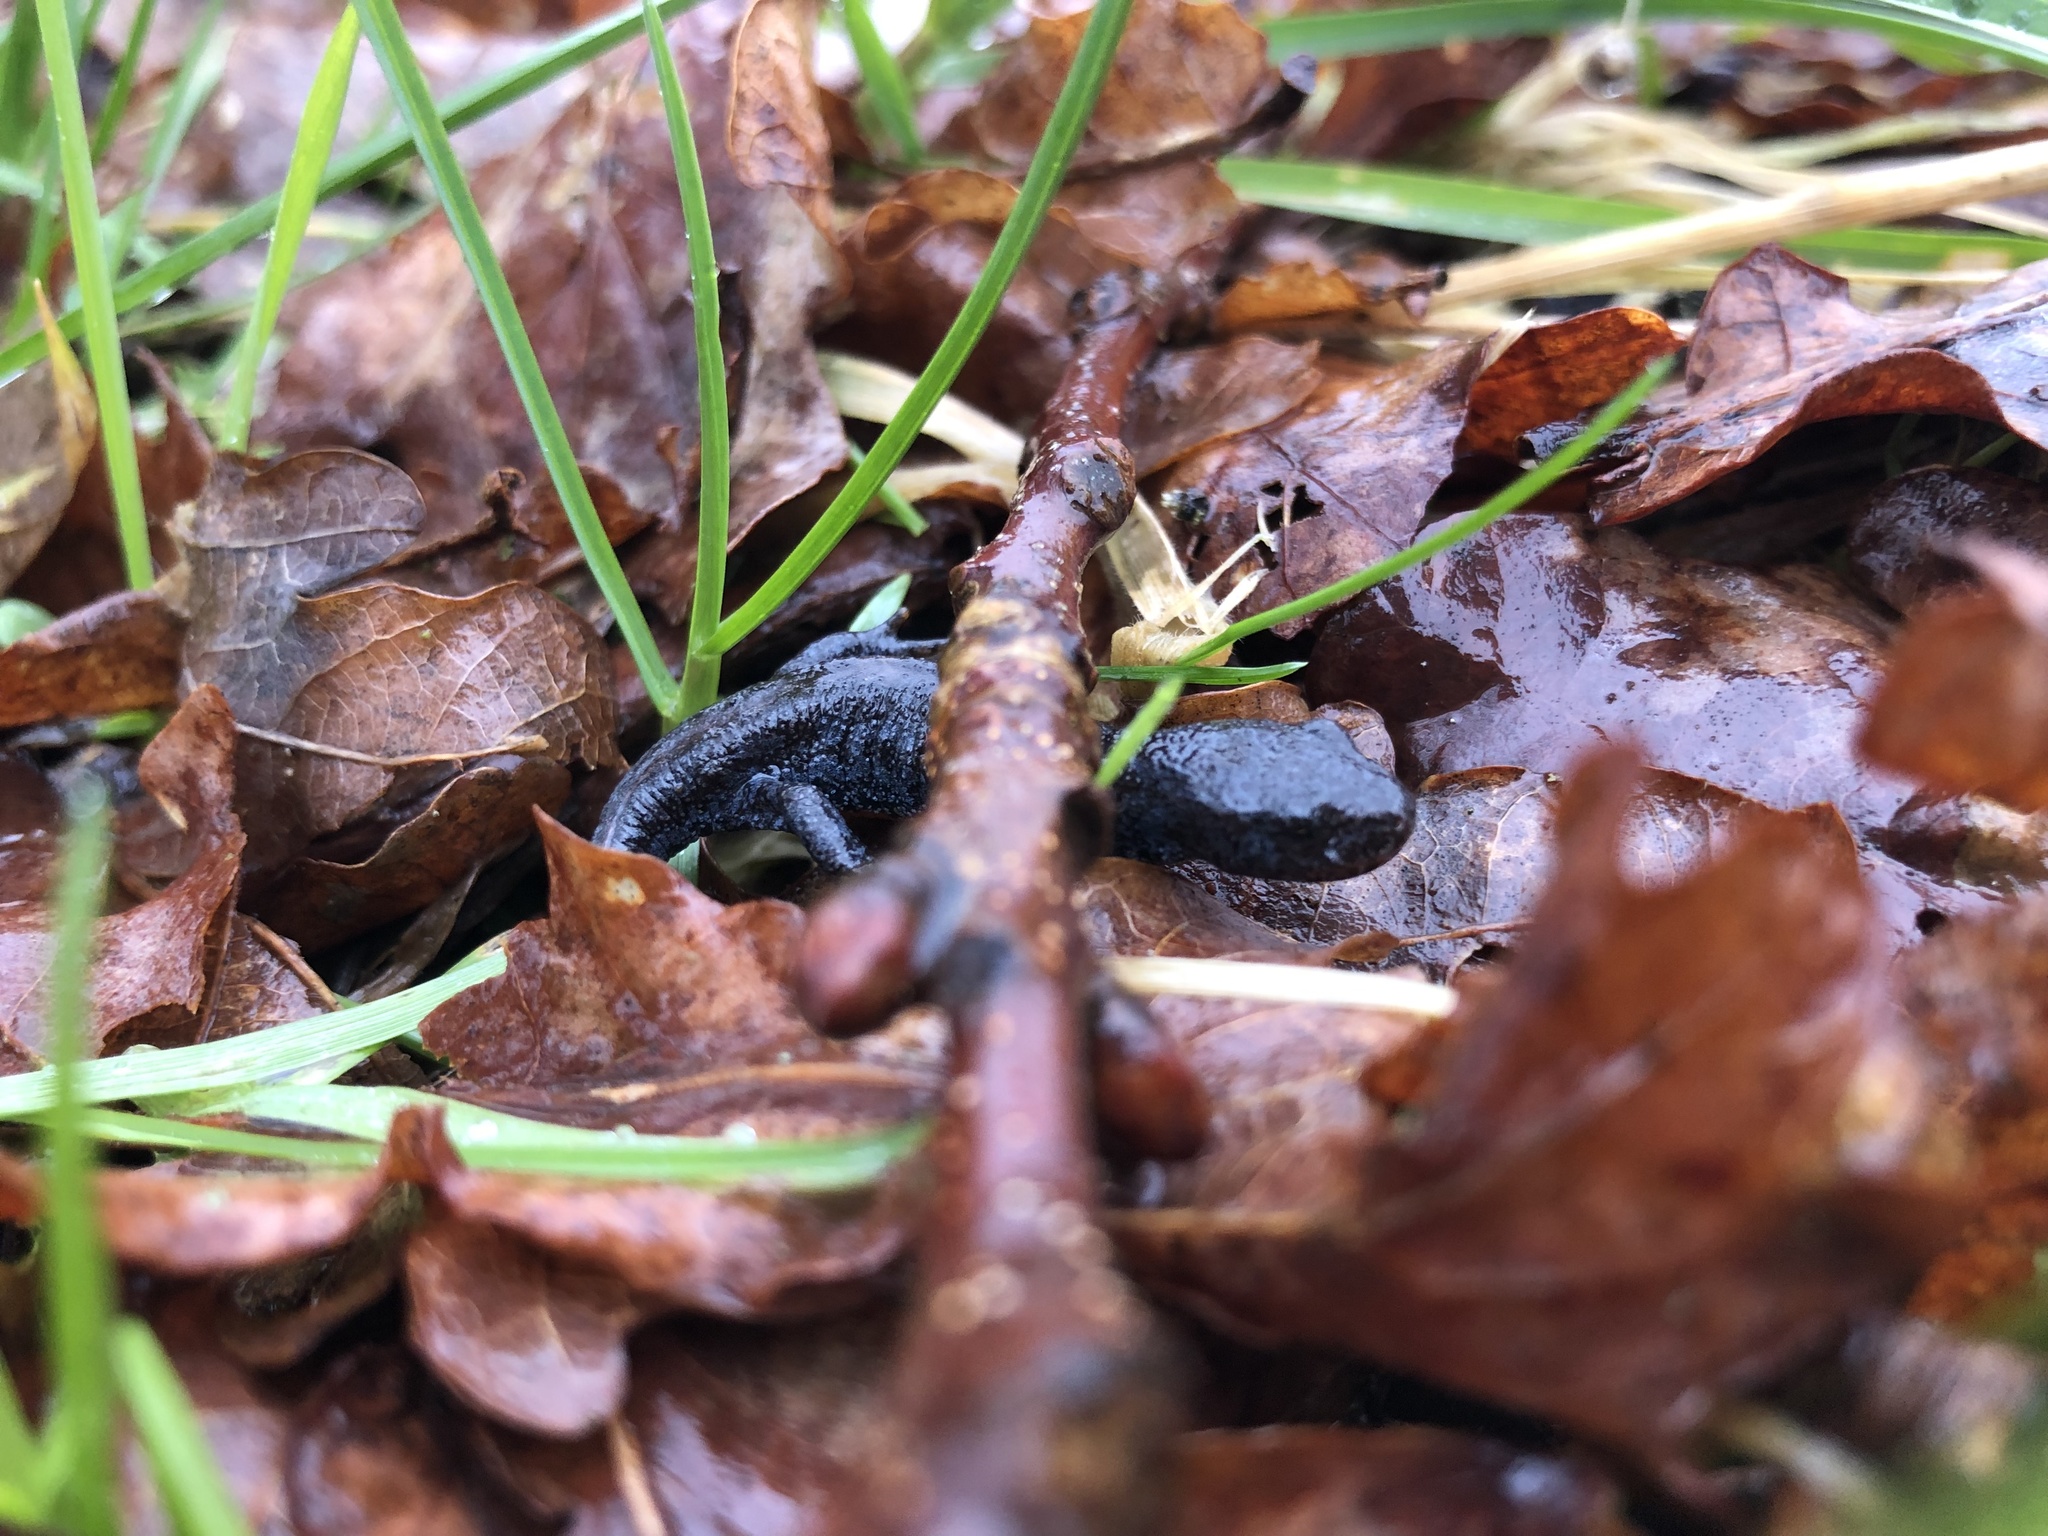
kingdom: Animalia
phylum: Chordata
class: Amphibia
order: Caudata
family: Salamandridae
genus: Ichthyosaura
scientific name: Ichthyosaura alpestris
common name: Alpine newt
